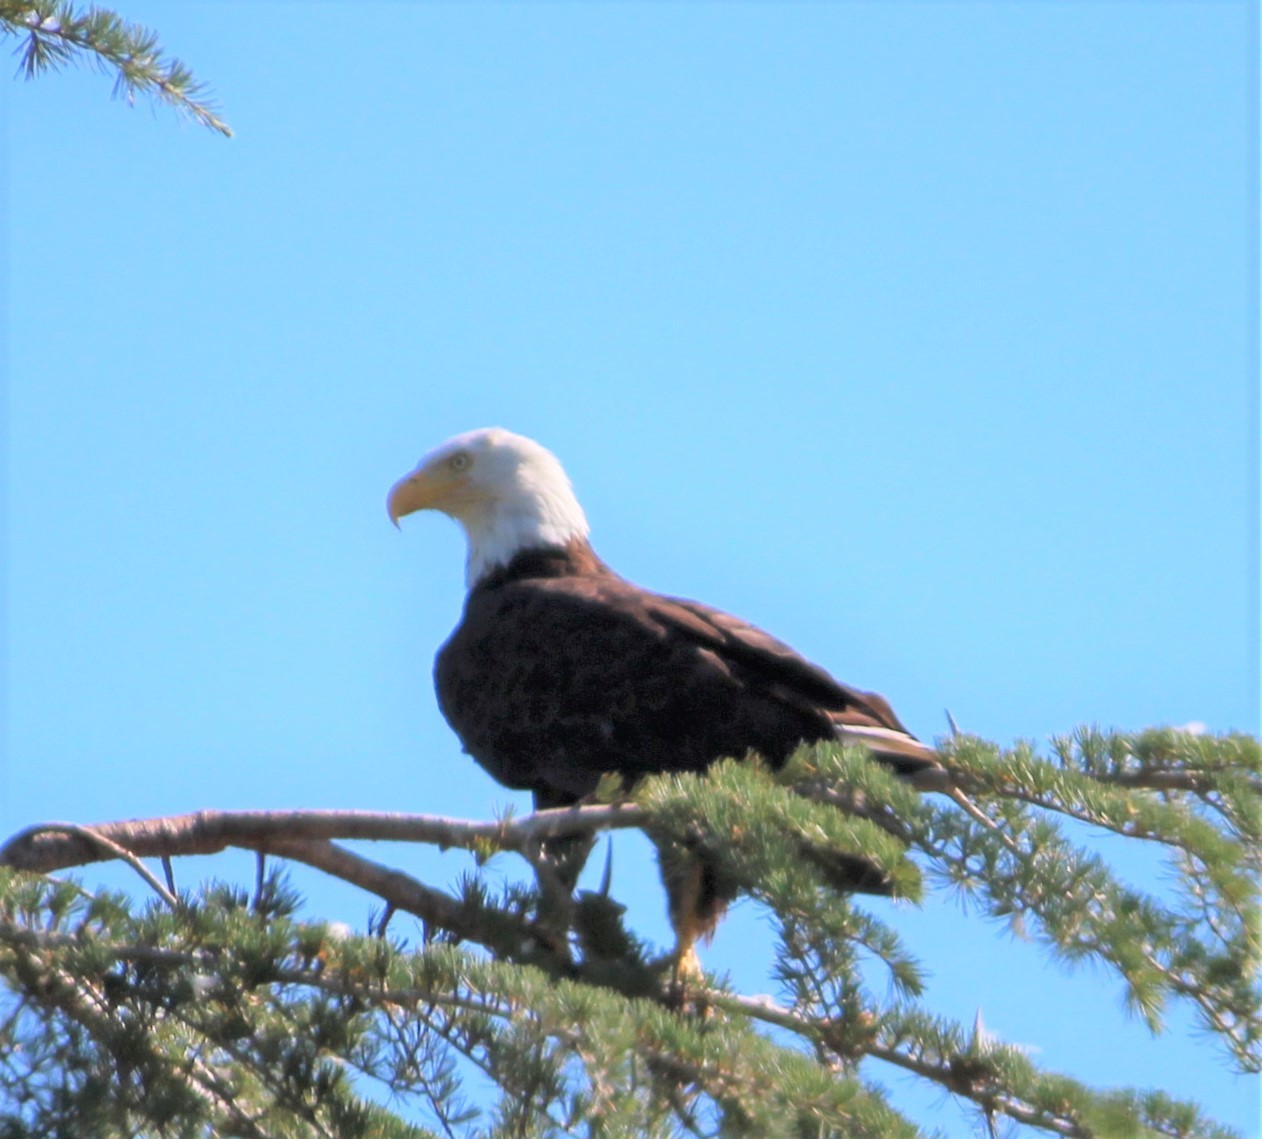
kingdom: Animalia
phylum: Chordata
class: Aves
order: Accipitriformes
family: Accipitridae
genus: Haliaeetus
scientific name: Haliaeetus leucocephalus
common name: Bald eagle
